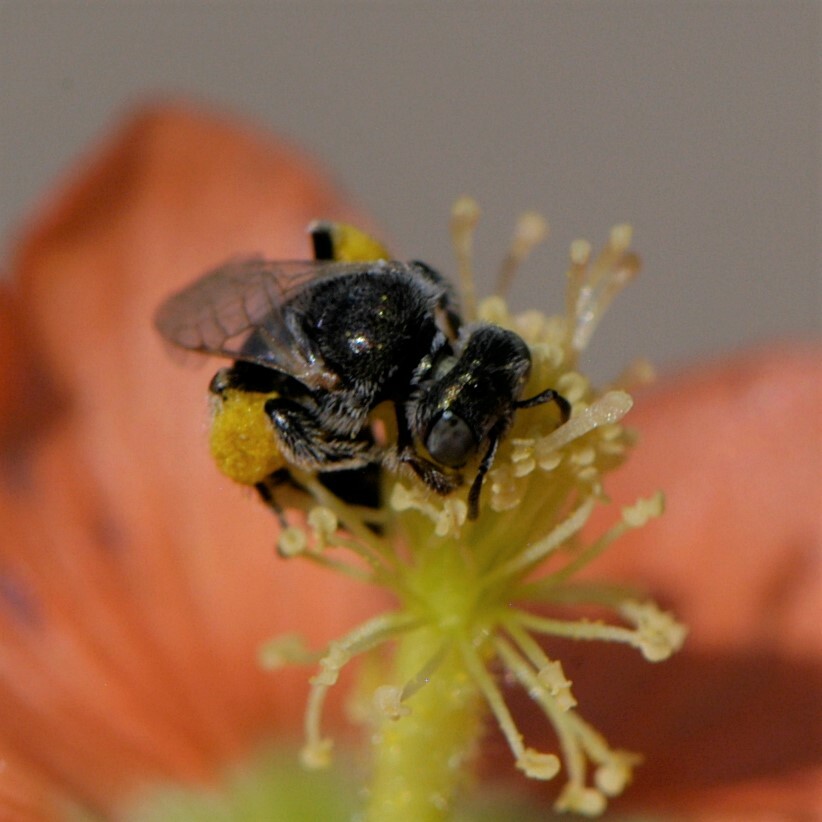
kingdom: Animalia
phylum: Arthropoda
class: Insecta
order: Hymenoptera
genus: Macroteropsis
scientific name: Macroteropsis
